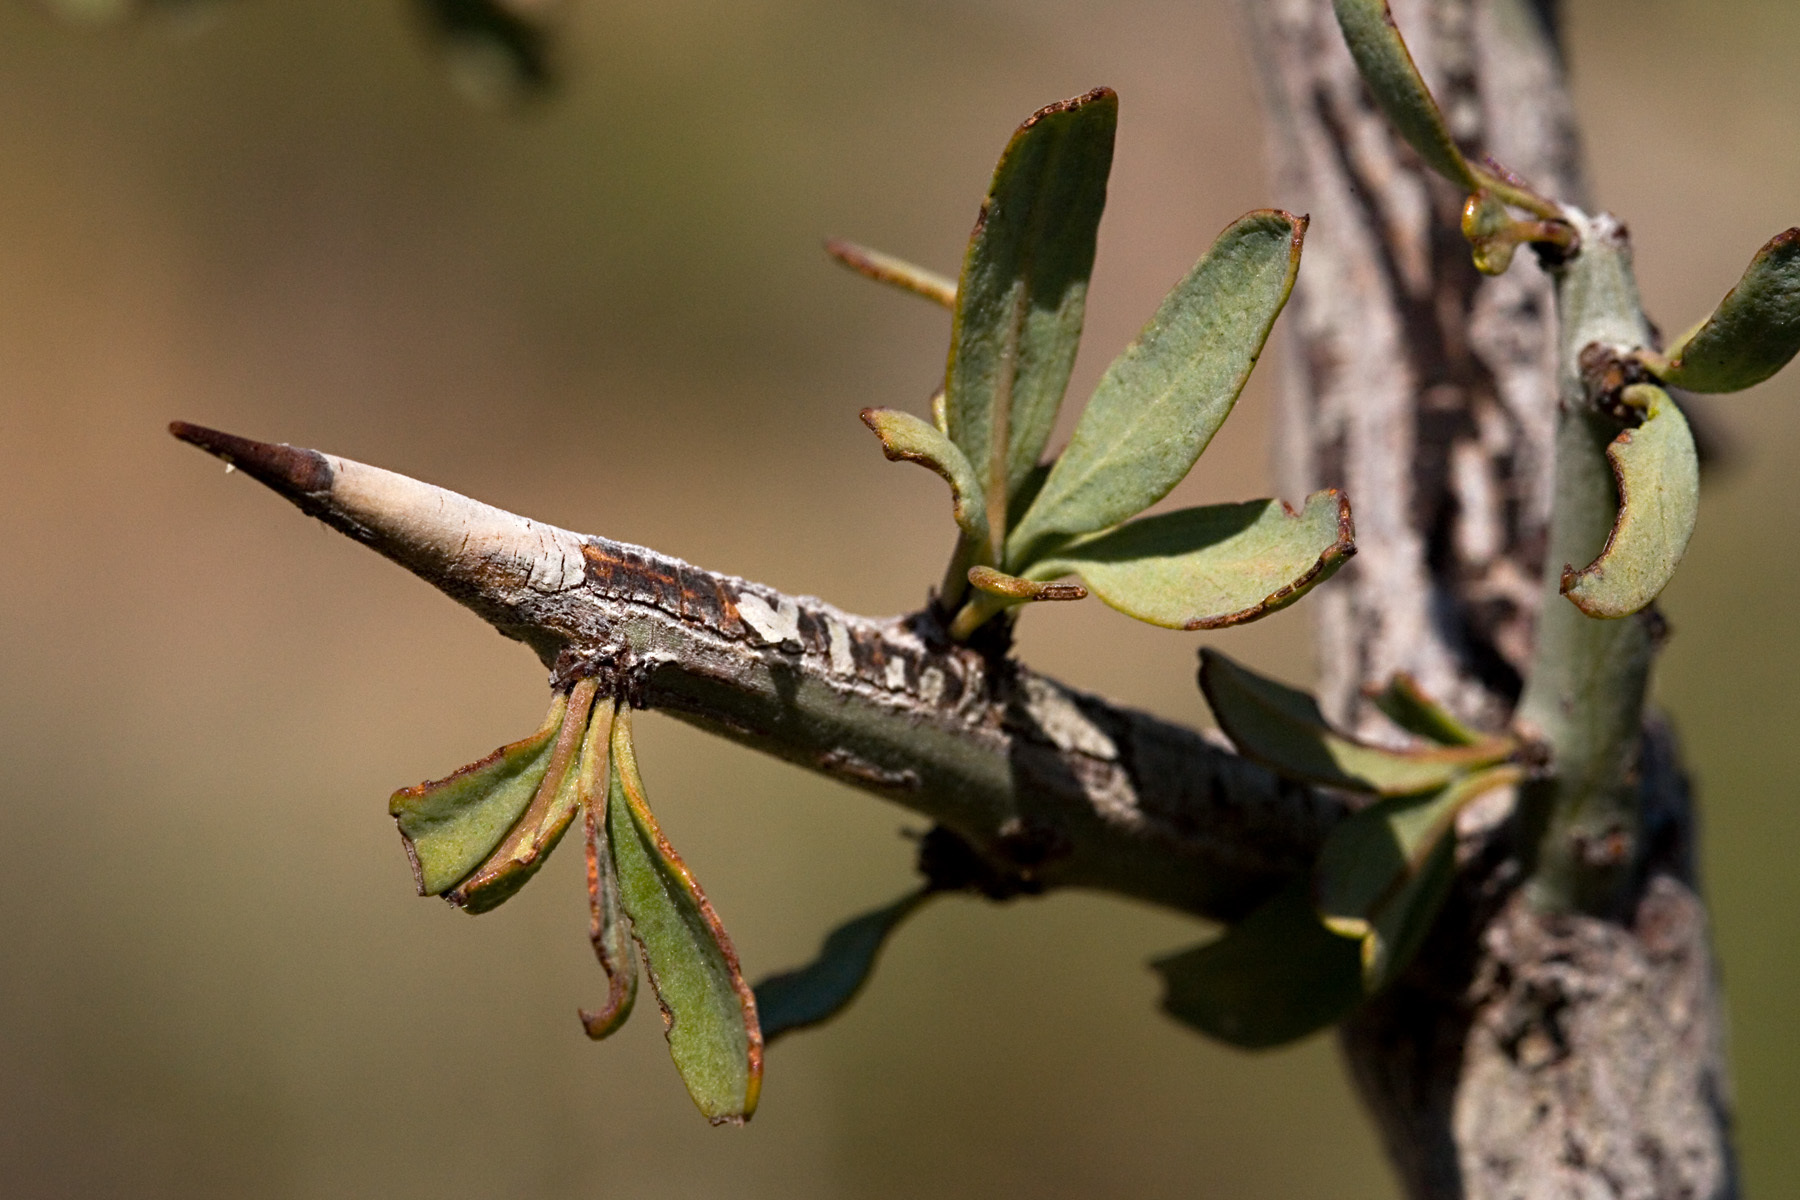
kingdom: Plantae
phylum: Tracheophyta
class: Magnoliopsida
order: Rosales
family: Rhamnaceae
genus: Sarcomphalus
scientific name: Sarcomphalus obtusifolius
